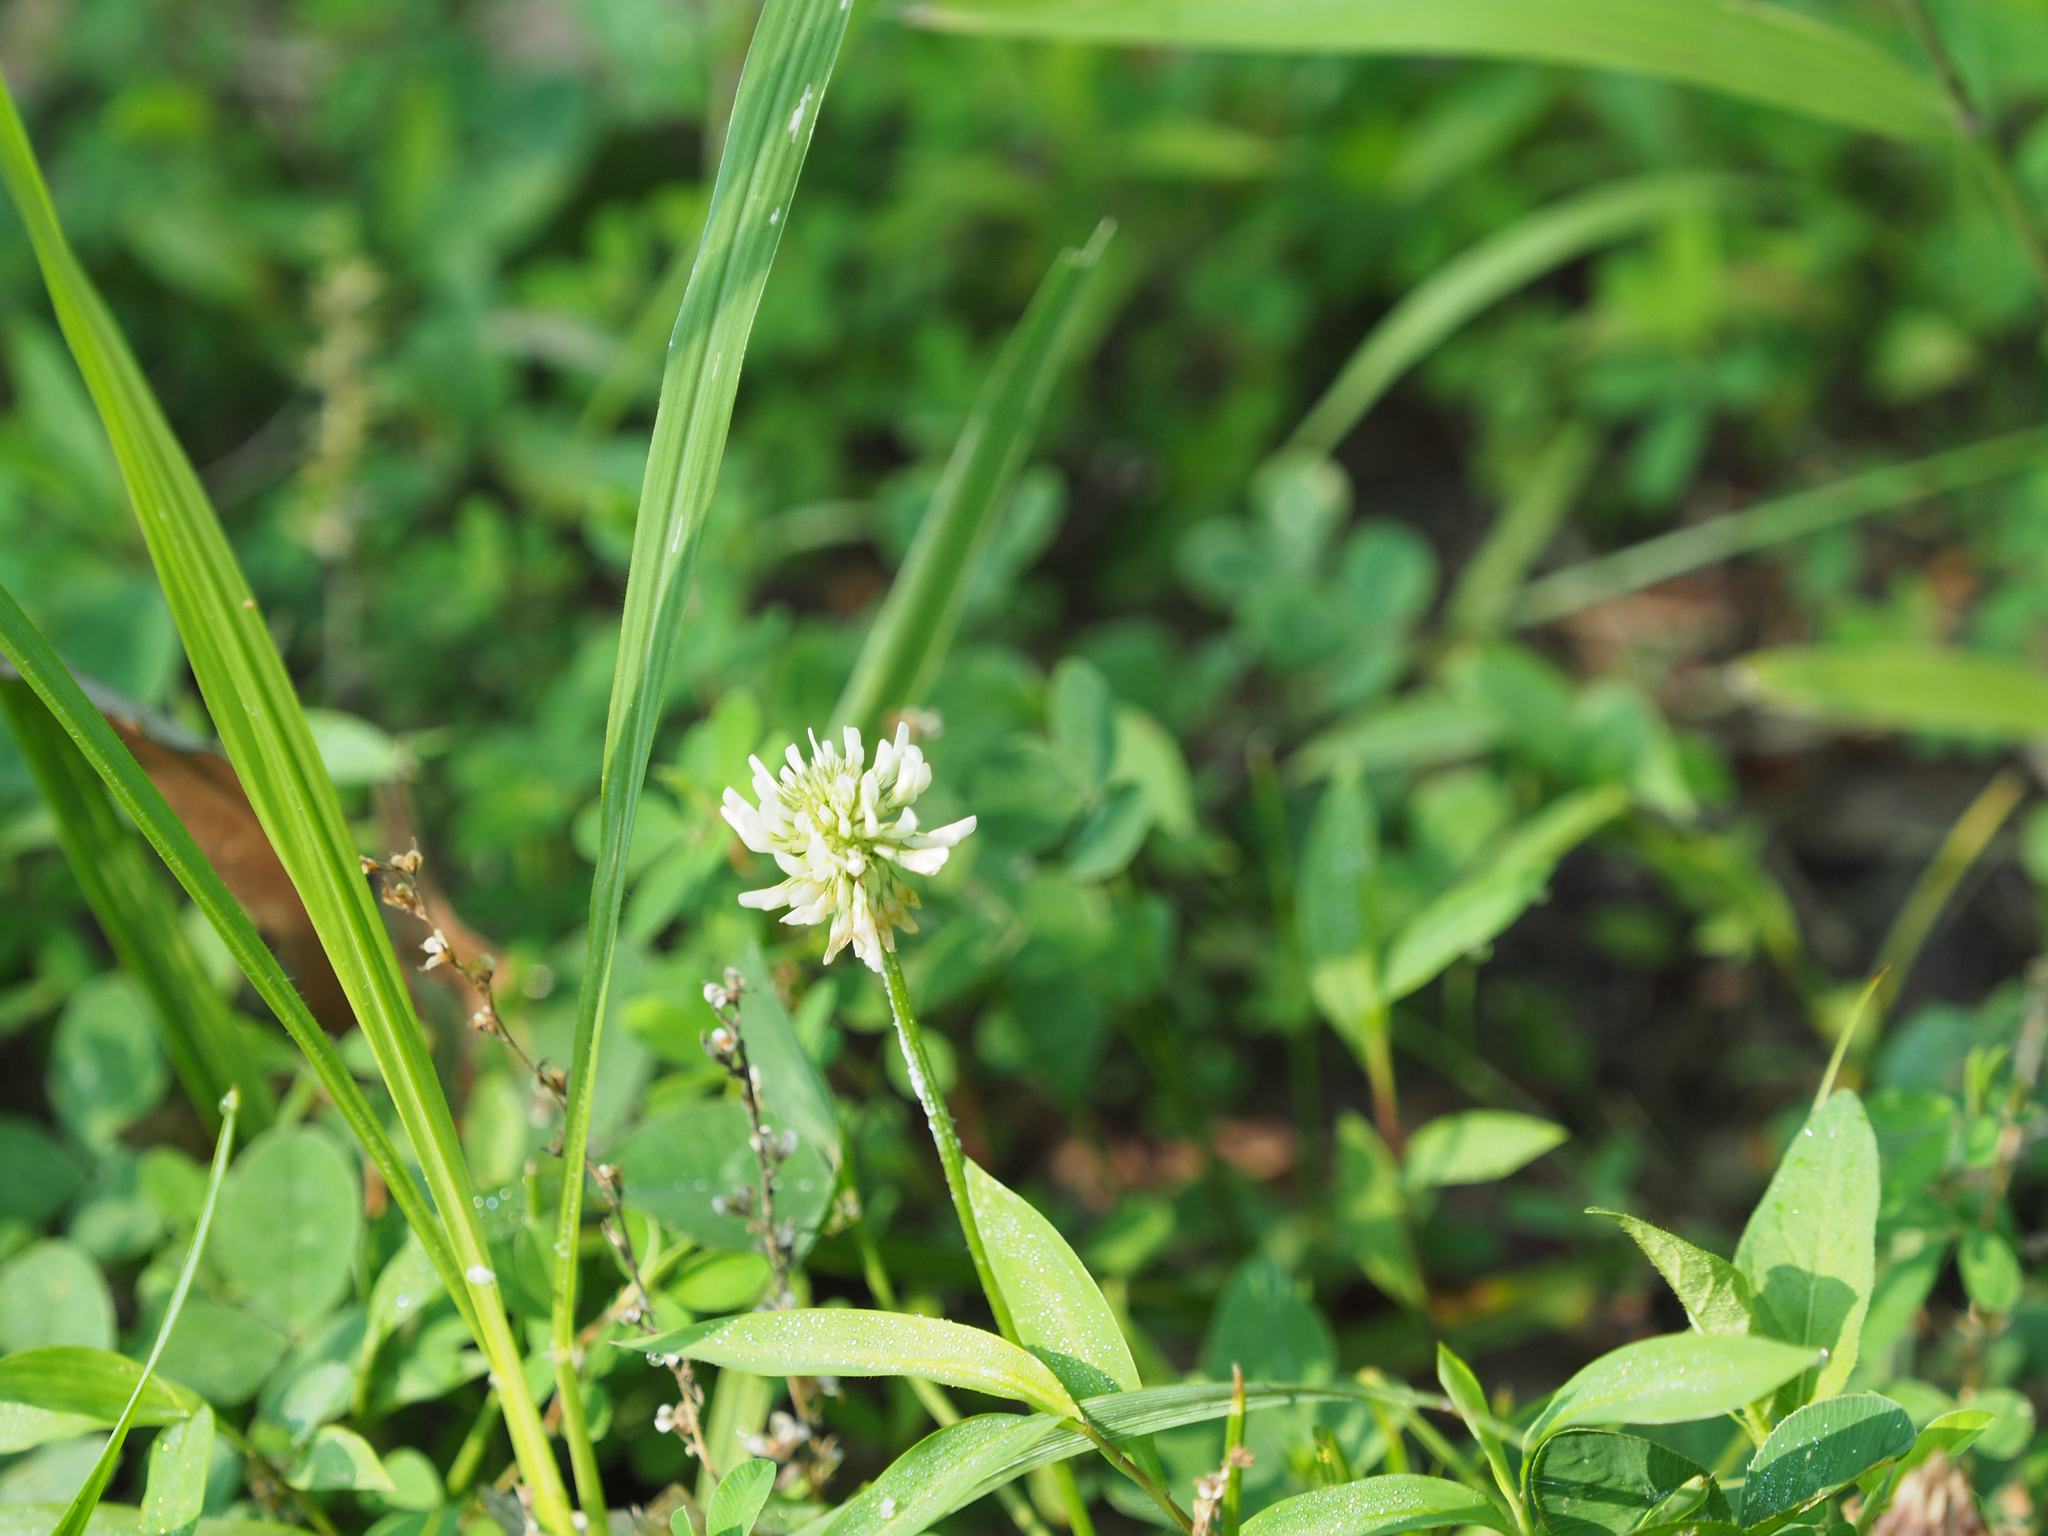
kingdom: Plantae
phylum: Tracheophyta
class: Magnoliopsida
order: Fabales
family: Fabaceae
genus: Trifolium
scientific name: Trifolium repens
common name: White clover
